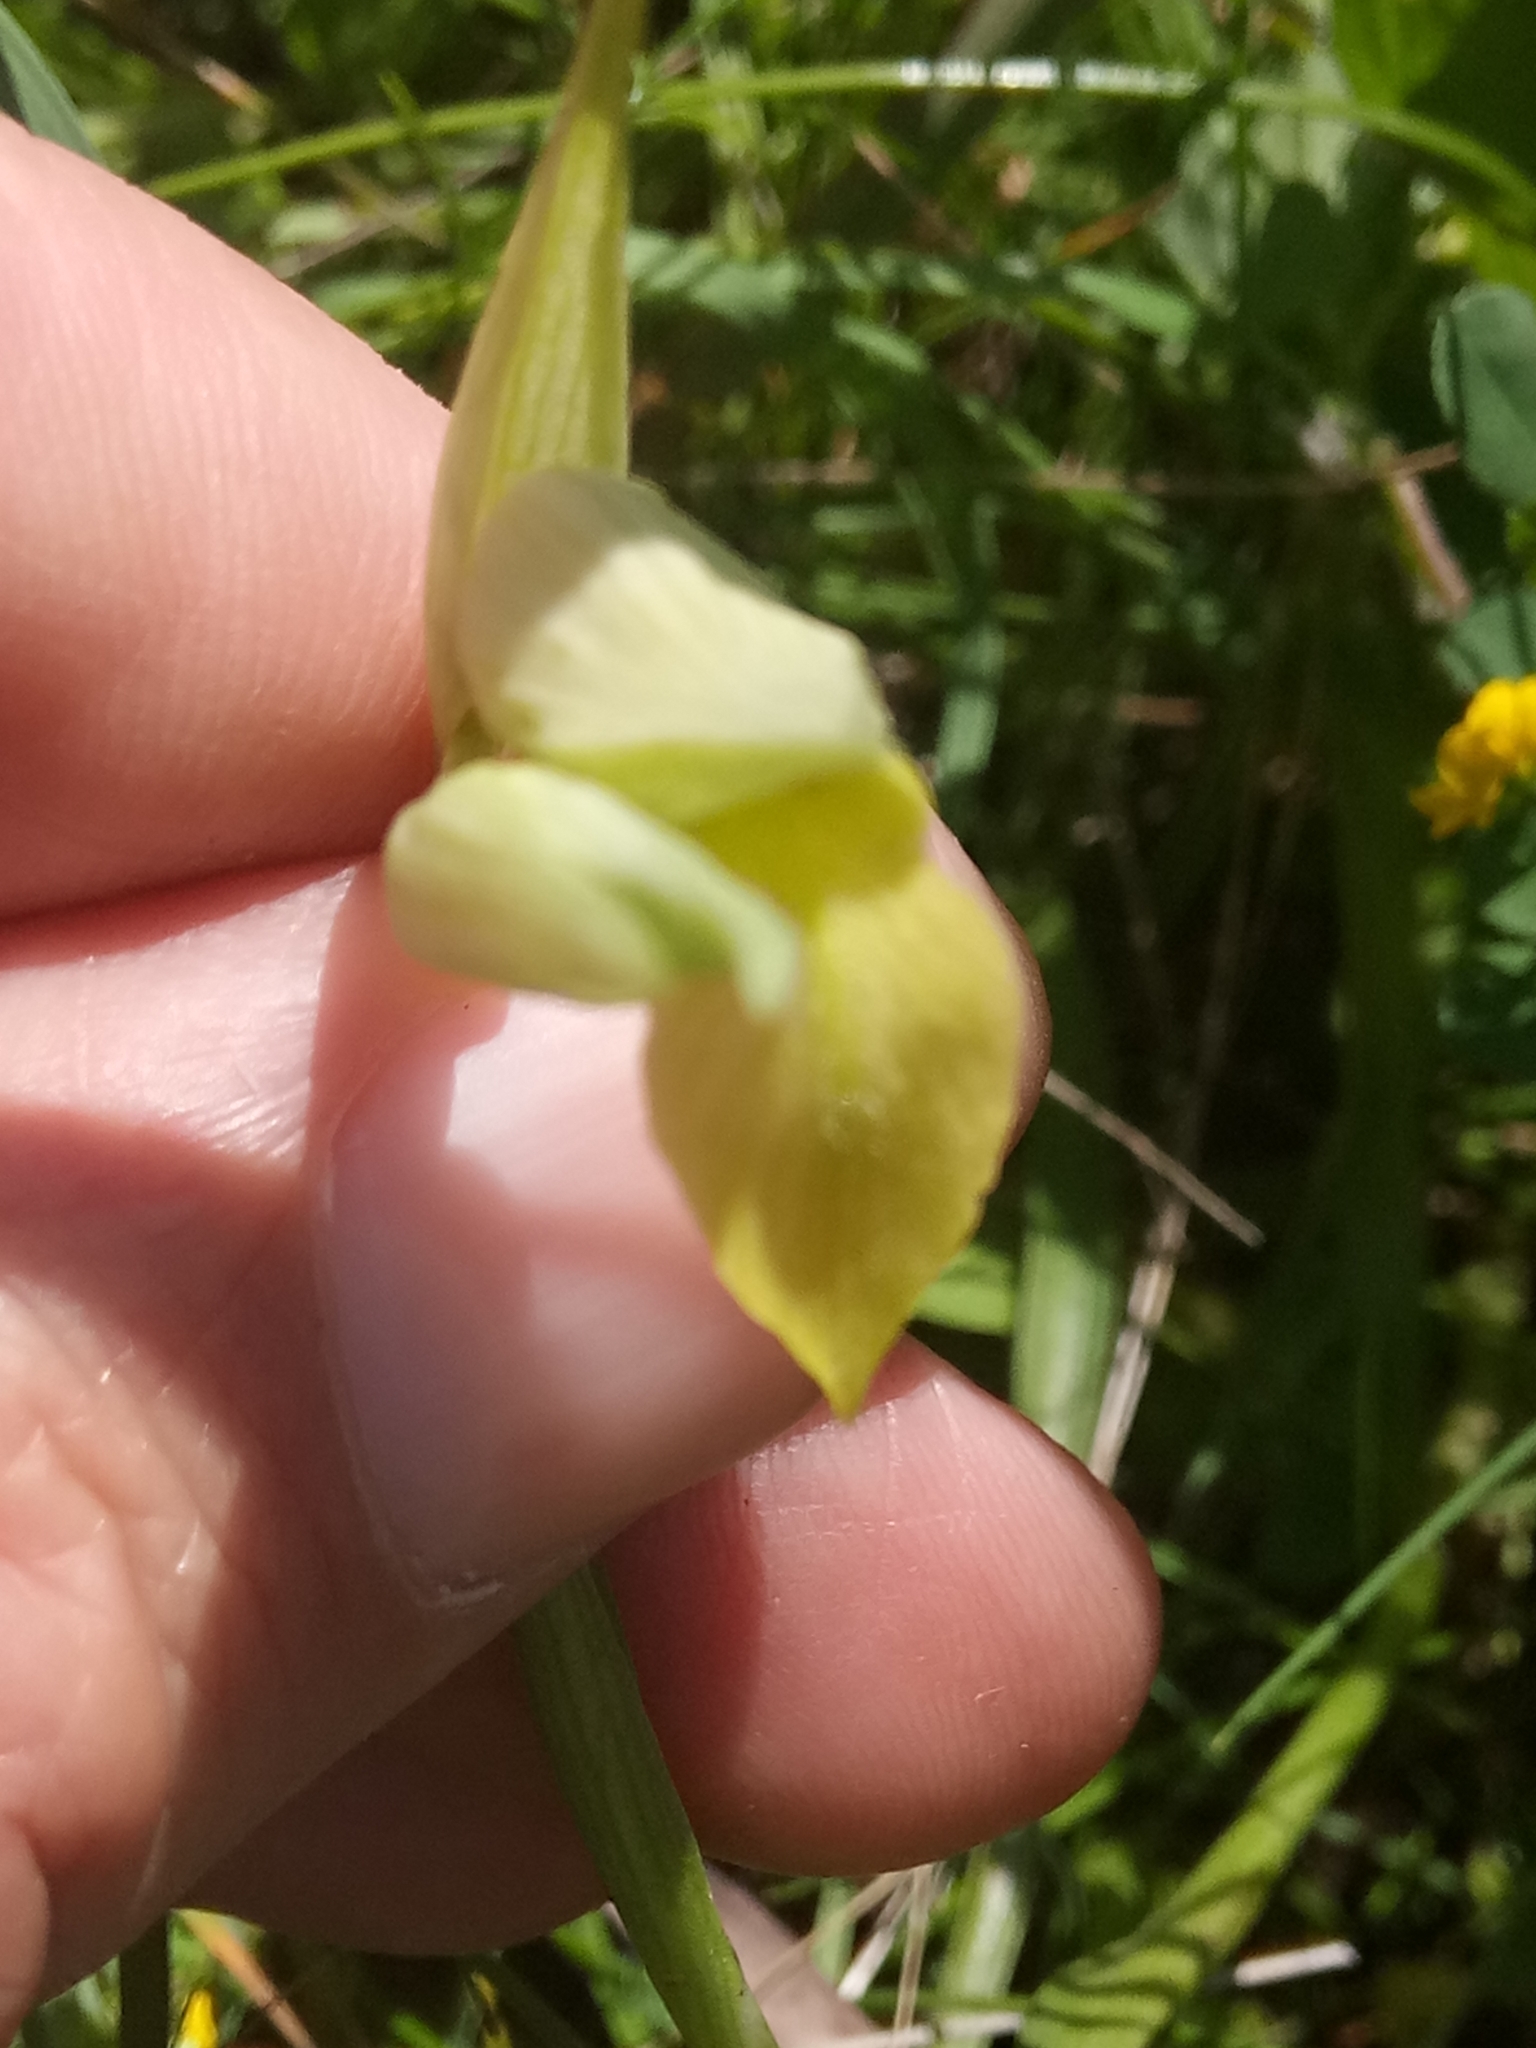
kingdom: Plantae
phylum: Tracheophyta
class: Liliopsida
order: Asparagales
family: Orchidaceae
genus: Serapias
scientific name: Serapias lingua
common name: Tongue-orchid
